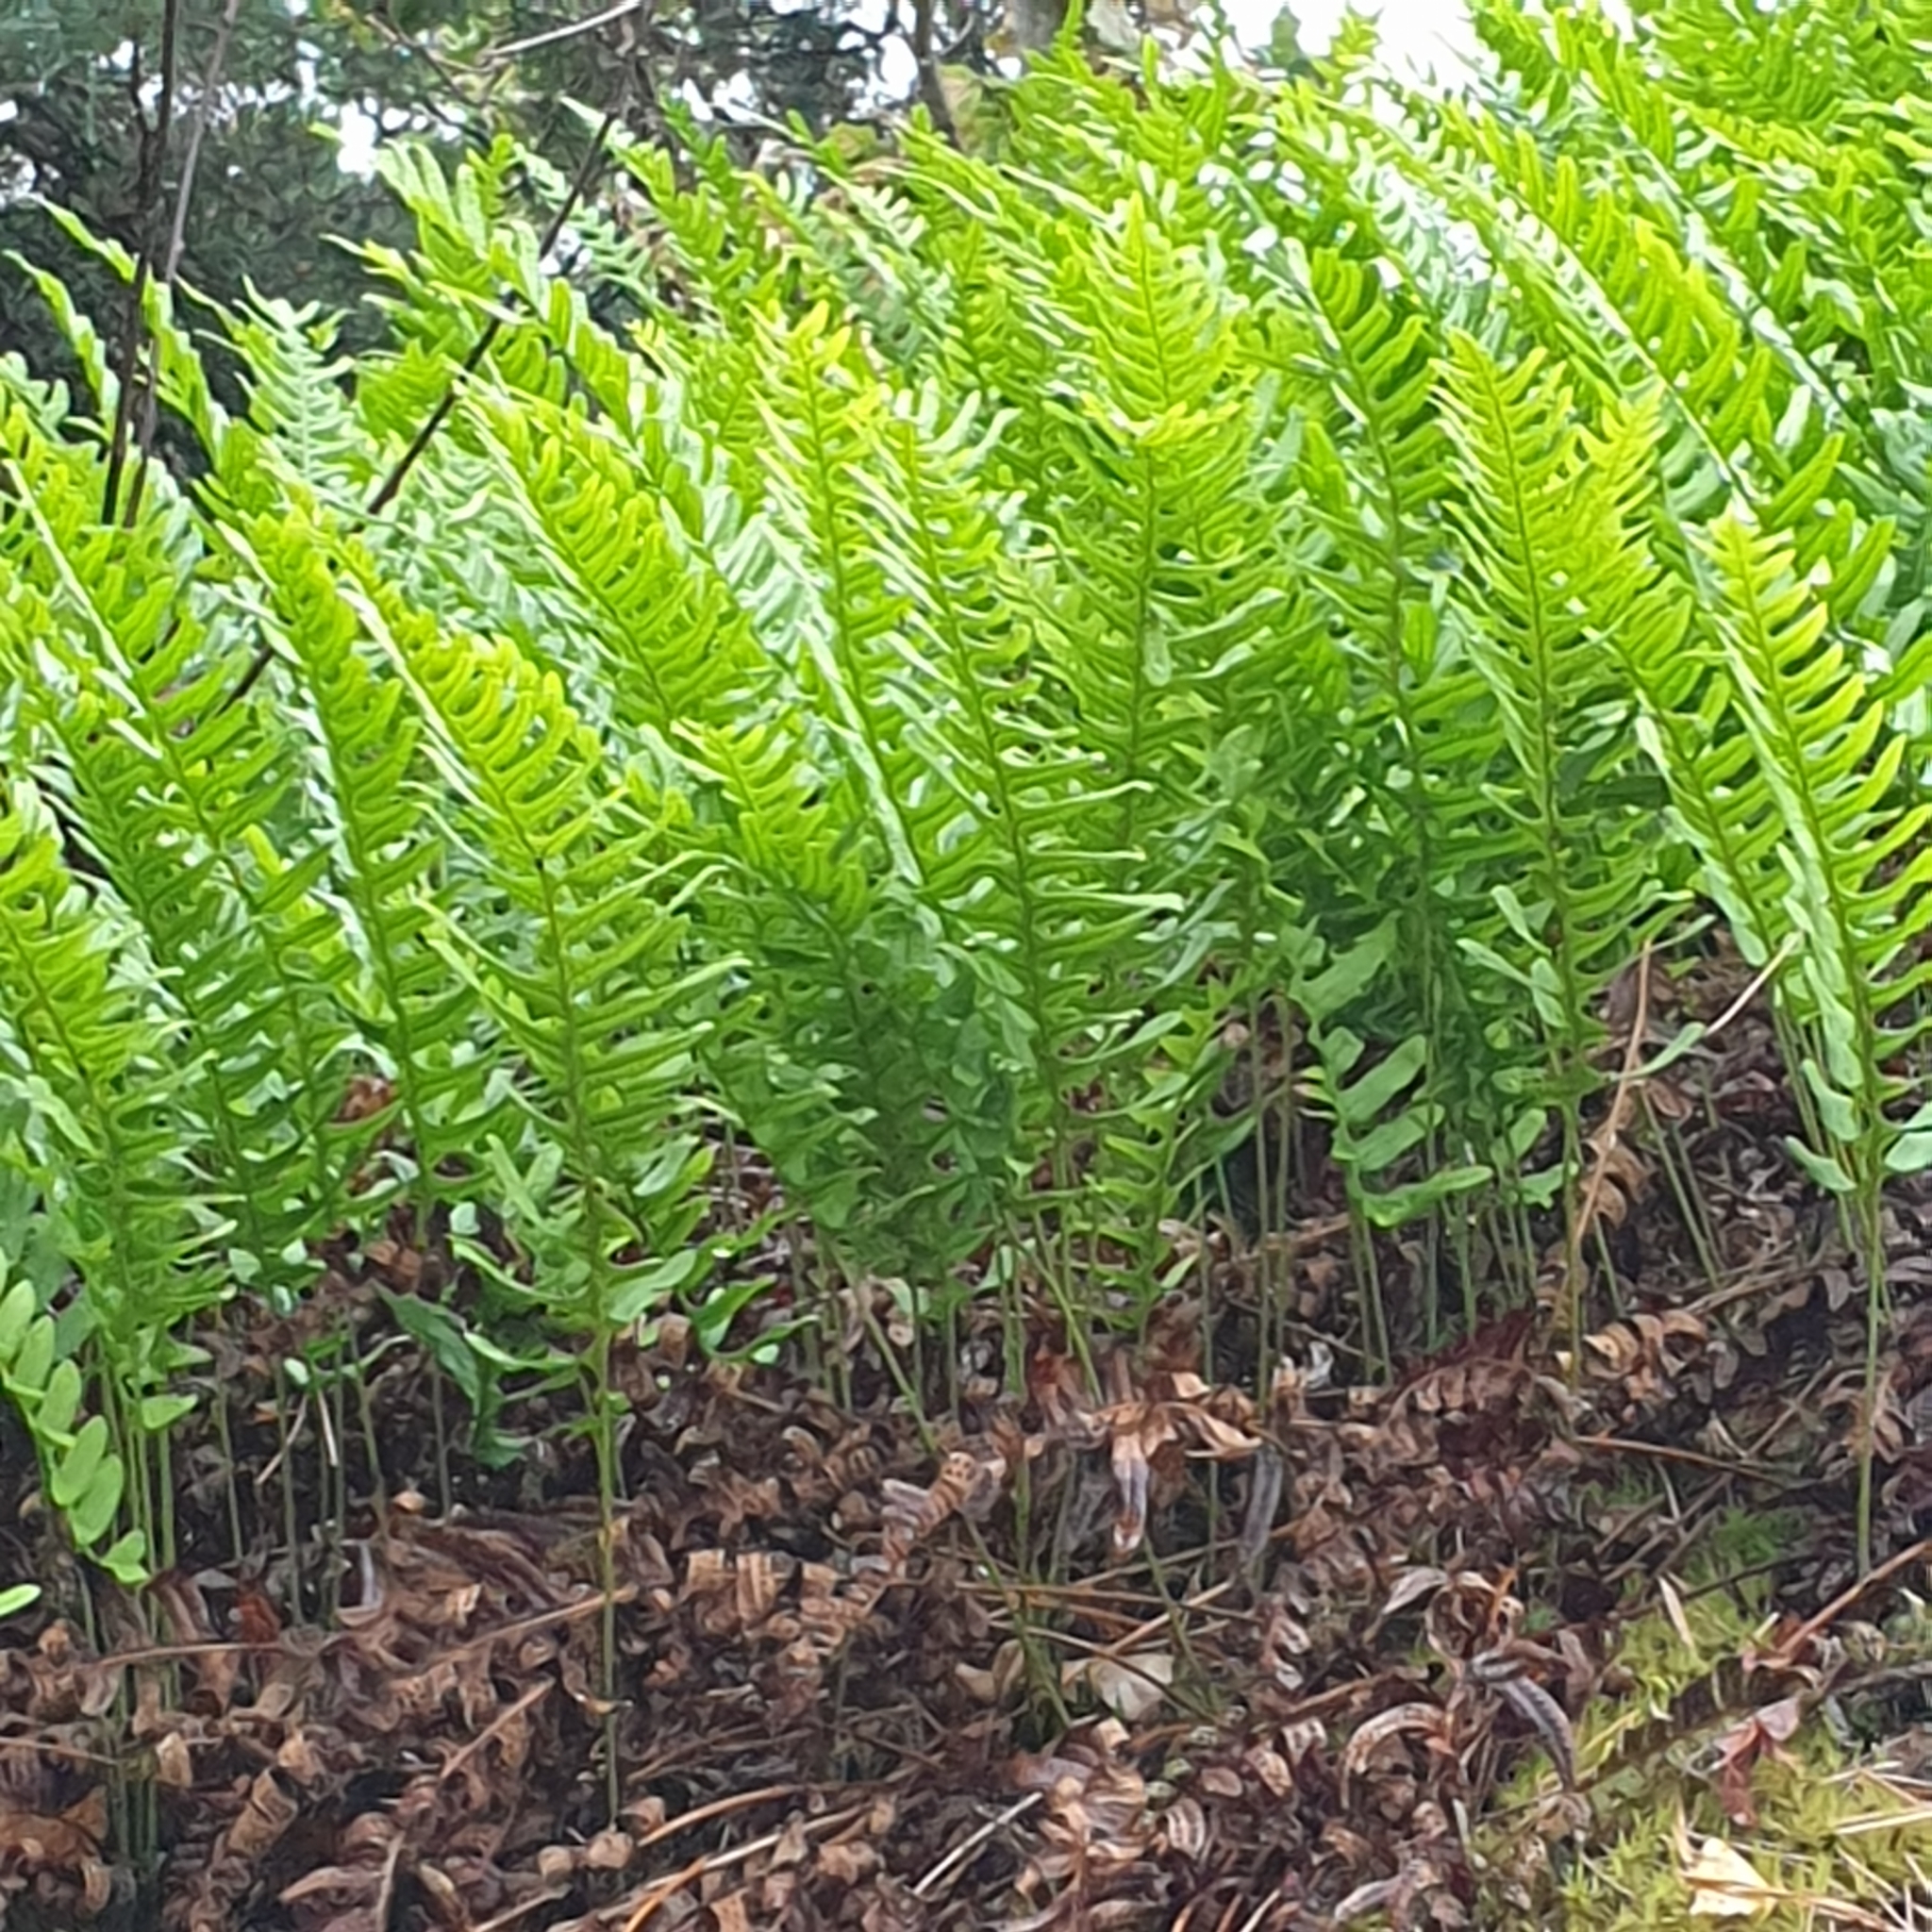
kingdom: Plantae
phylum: Tracheophyta
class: Polypodiopsida
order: Polypodiales
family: Polypodiaceae
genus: Polypodium
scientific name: Polypodium vulgare
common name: Common polypody
